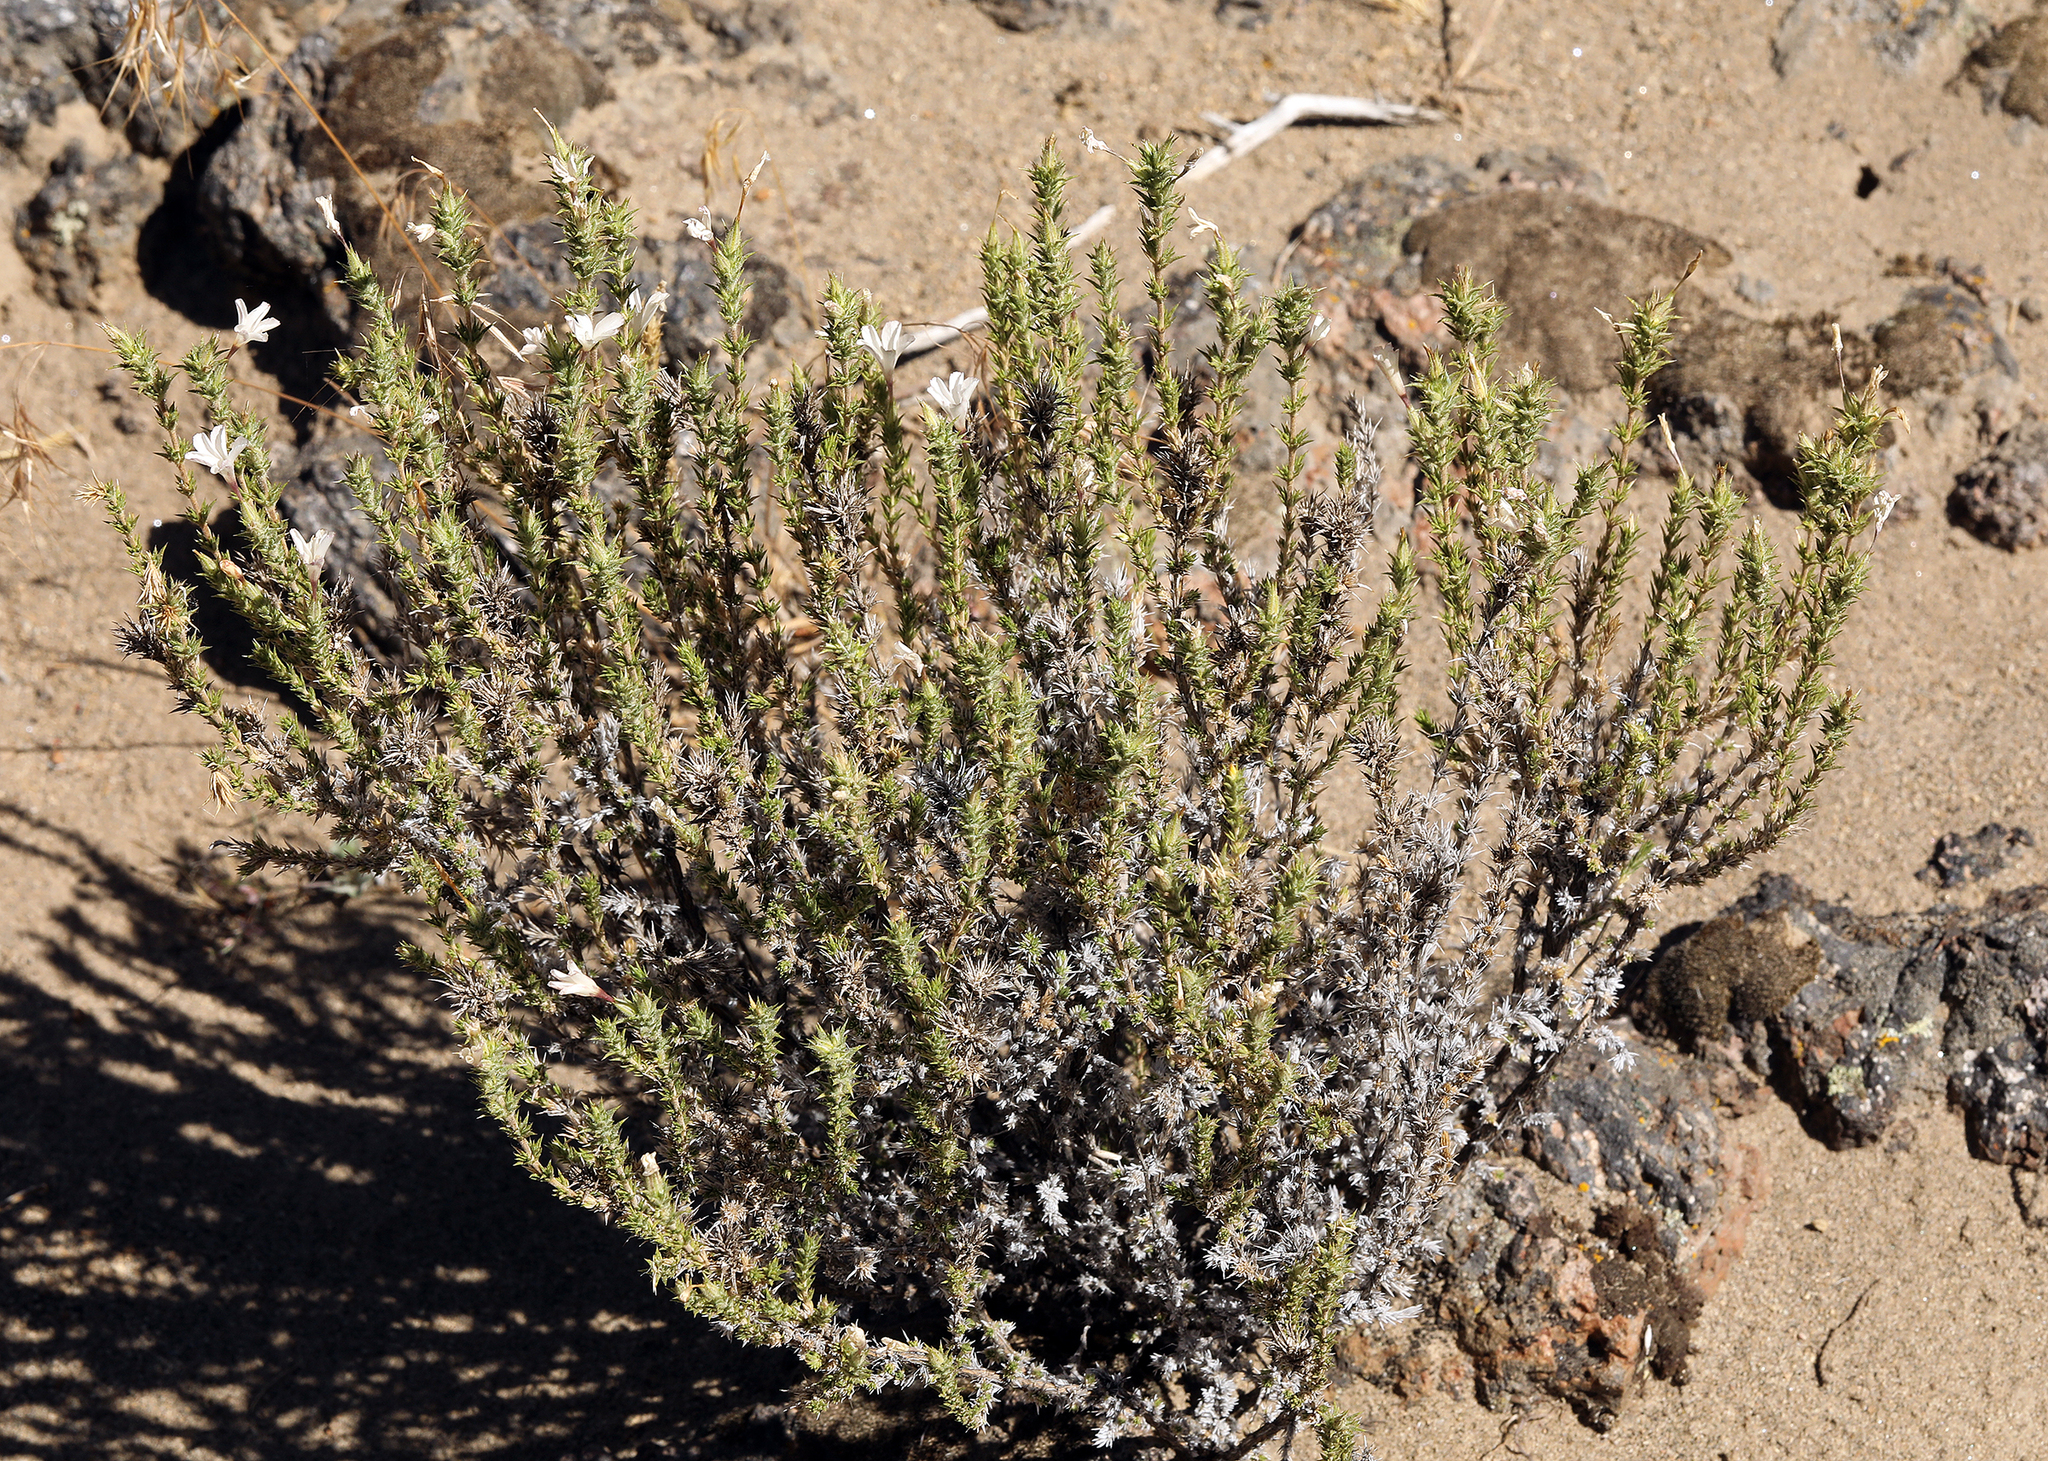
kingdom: Plantae
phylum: Tracheophyta
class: Magnoliopsida
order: Ericales
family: Polemoniaceae
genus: Linanthus
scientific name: Linanthus pungens
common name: Granite prickly phlox
